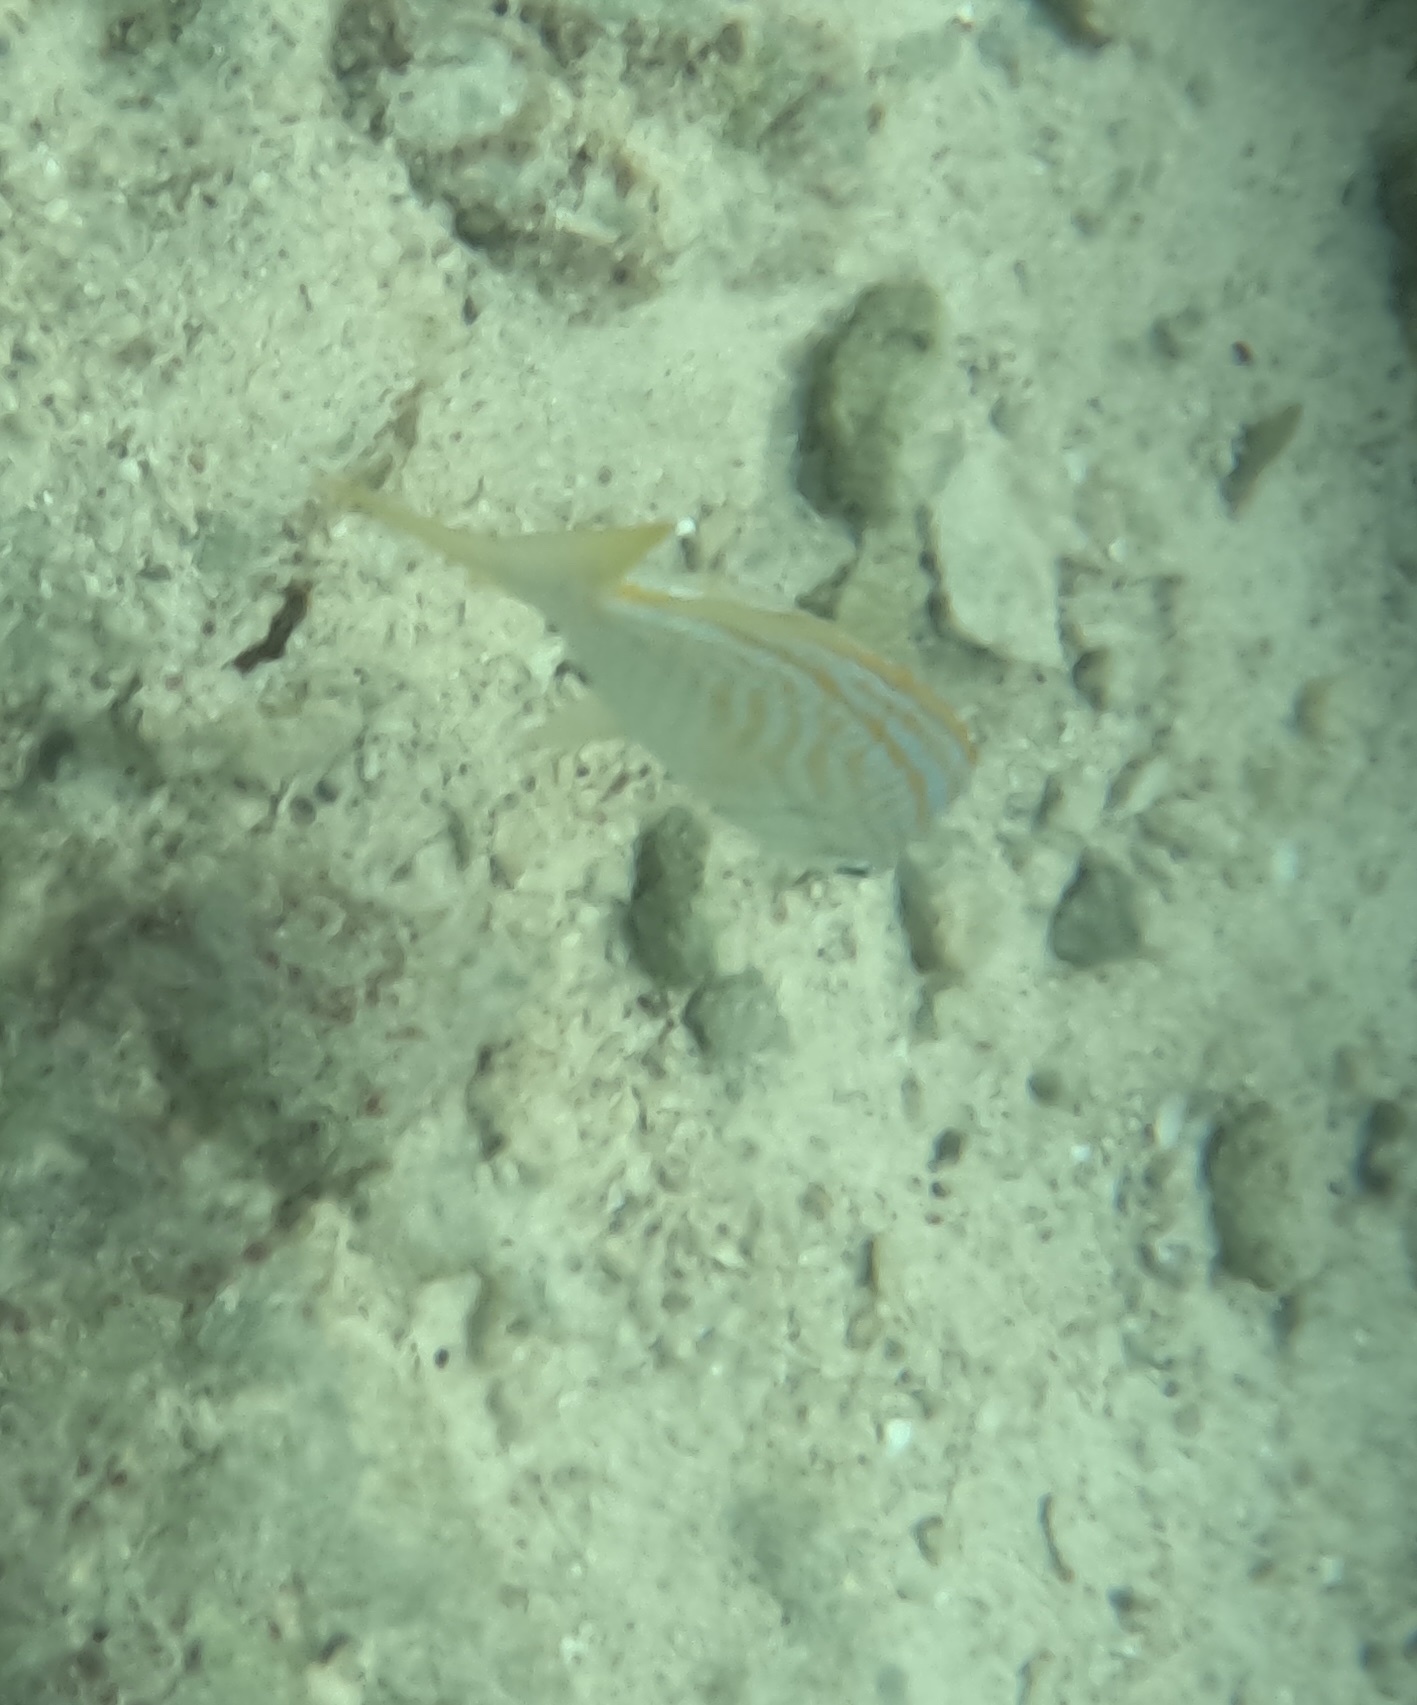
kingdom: Animalia
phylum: Chordata
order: Perciformes
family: Haemulidae
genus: Haemulon
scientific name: Haemulon flavolineatum
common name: French grunt
